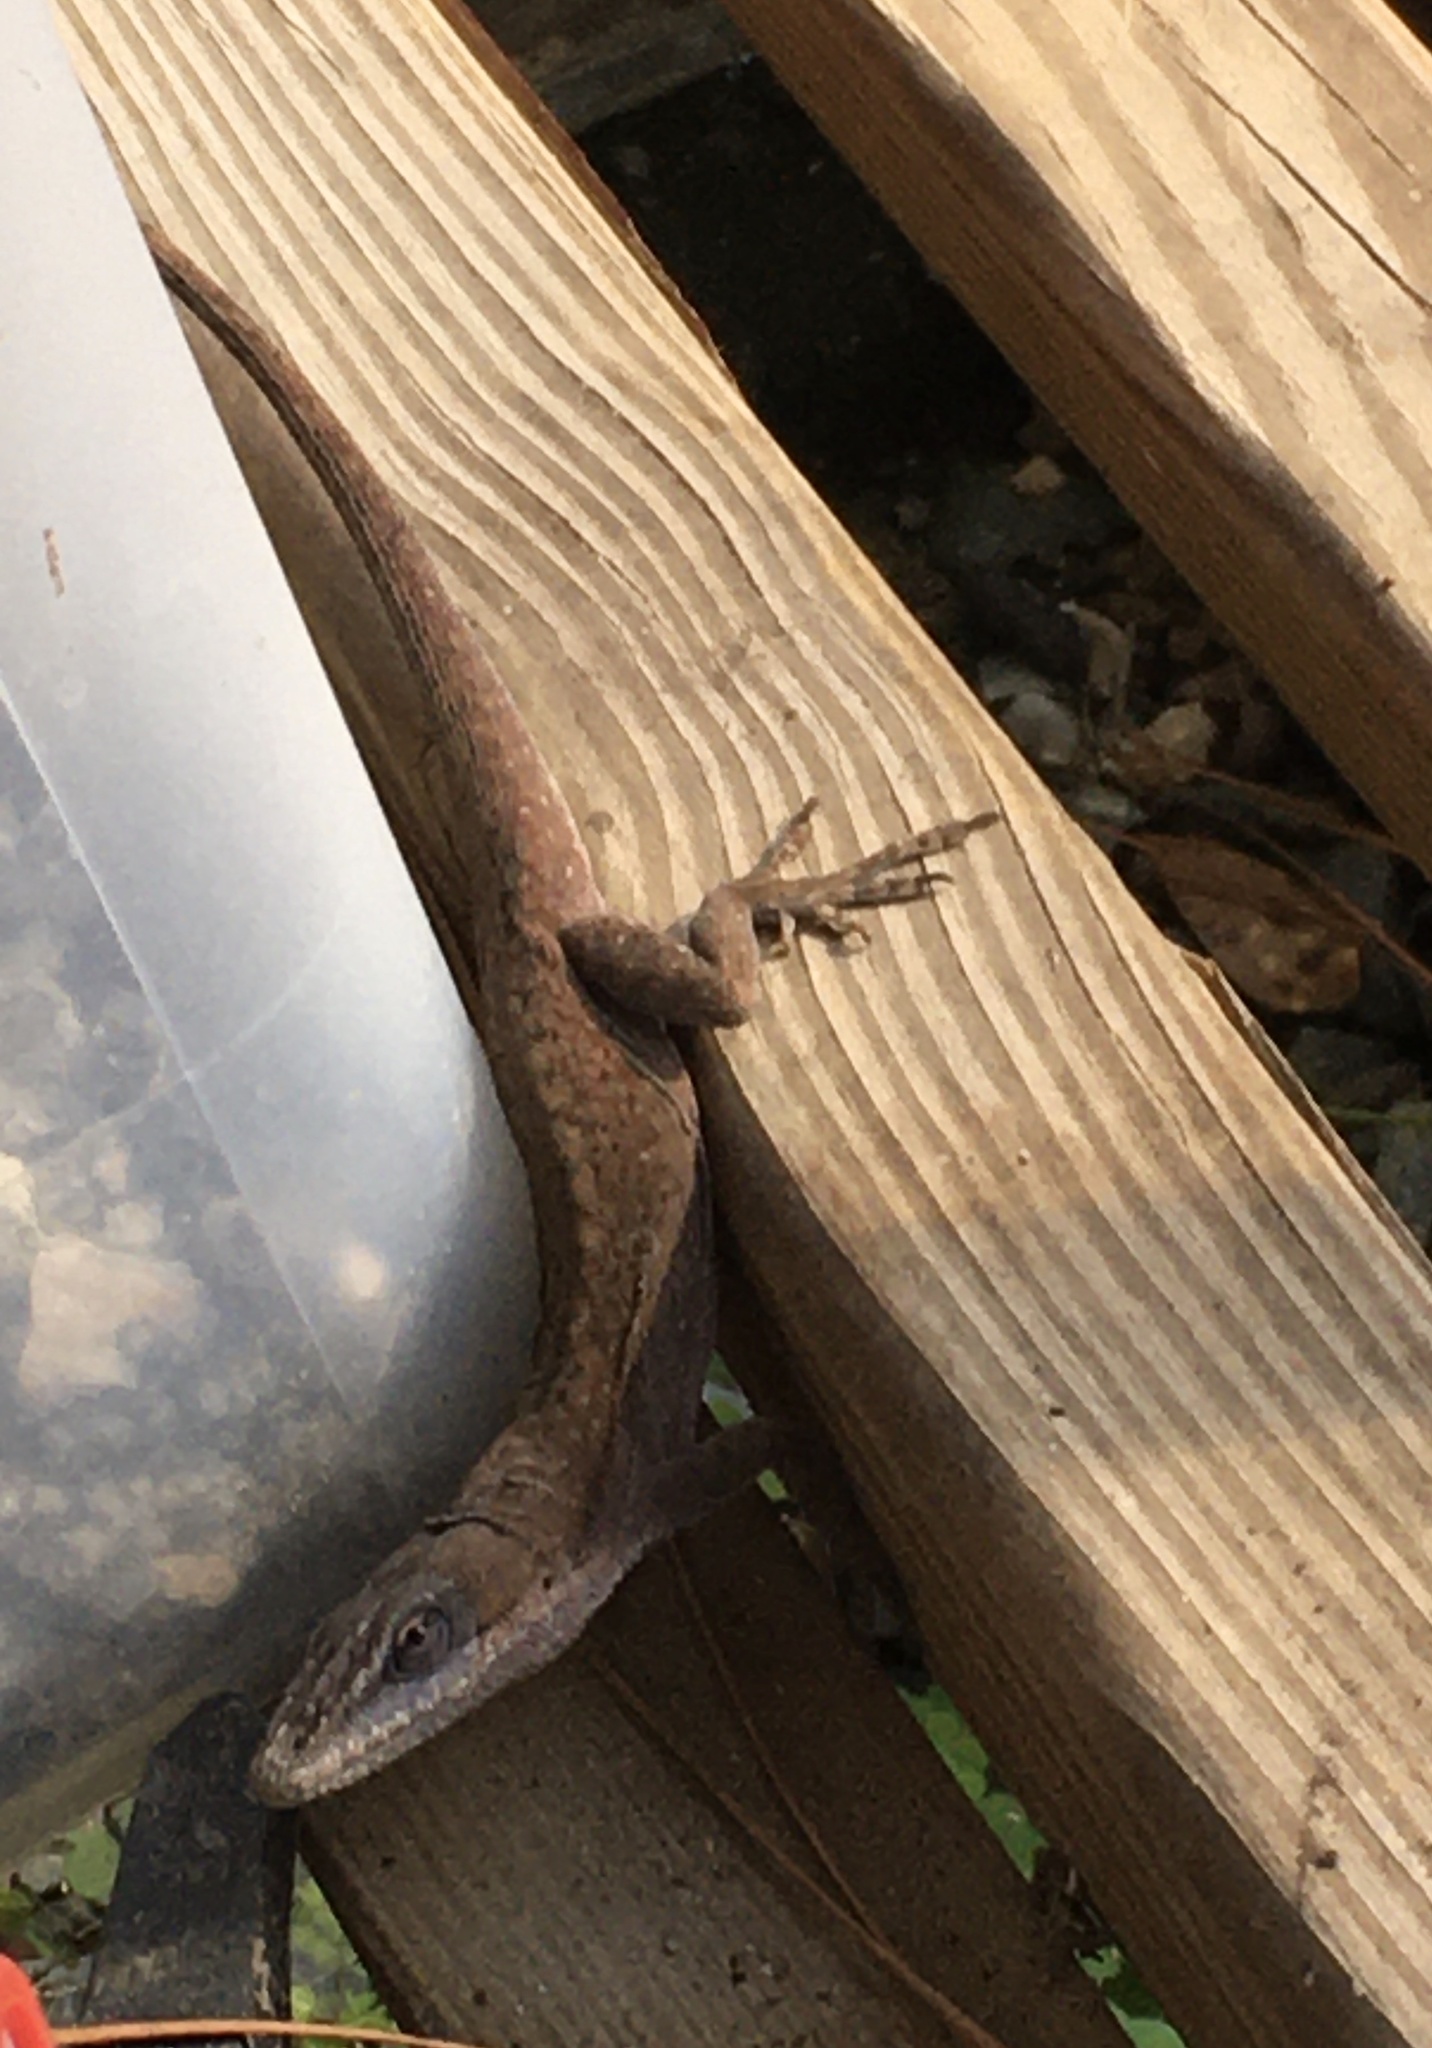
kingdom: Animalia
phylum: Chordata
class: Squamata
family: Dactyloidae
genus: Anolis
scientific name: Anolis carolinensis
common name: Green anole
